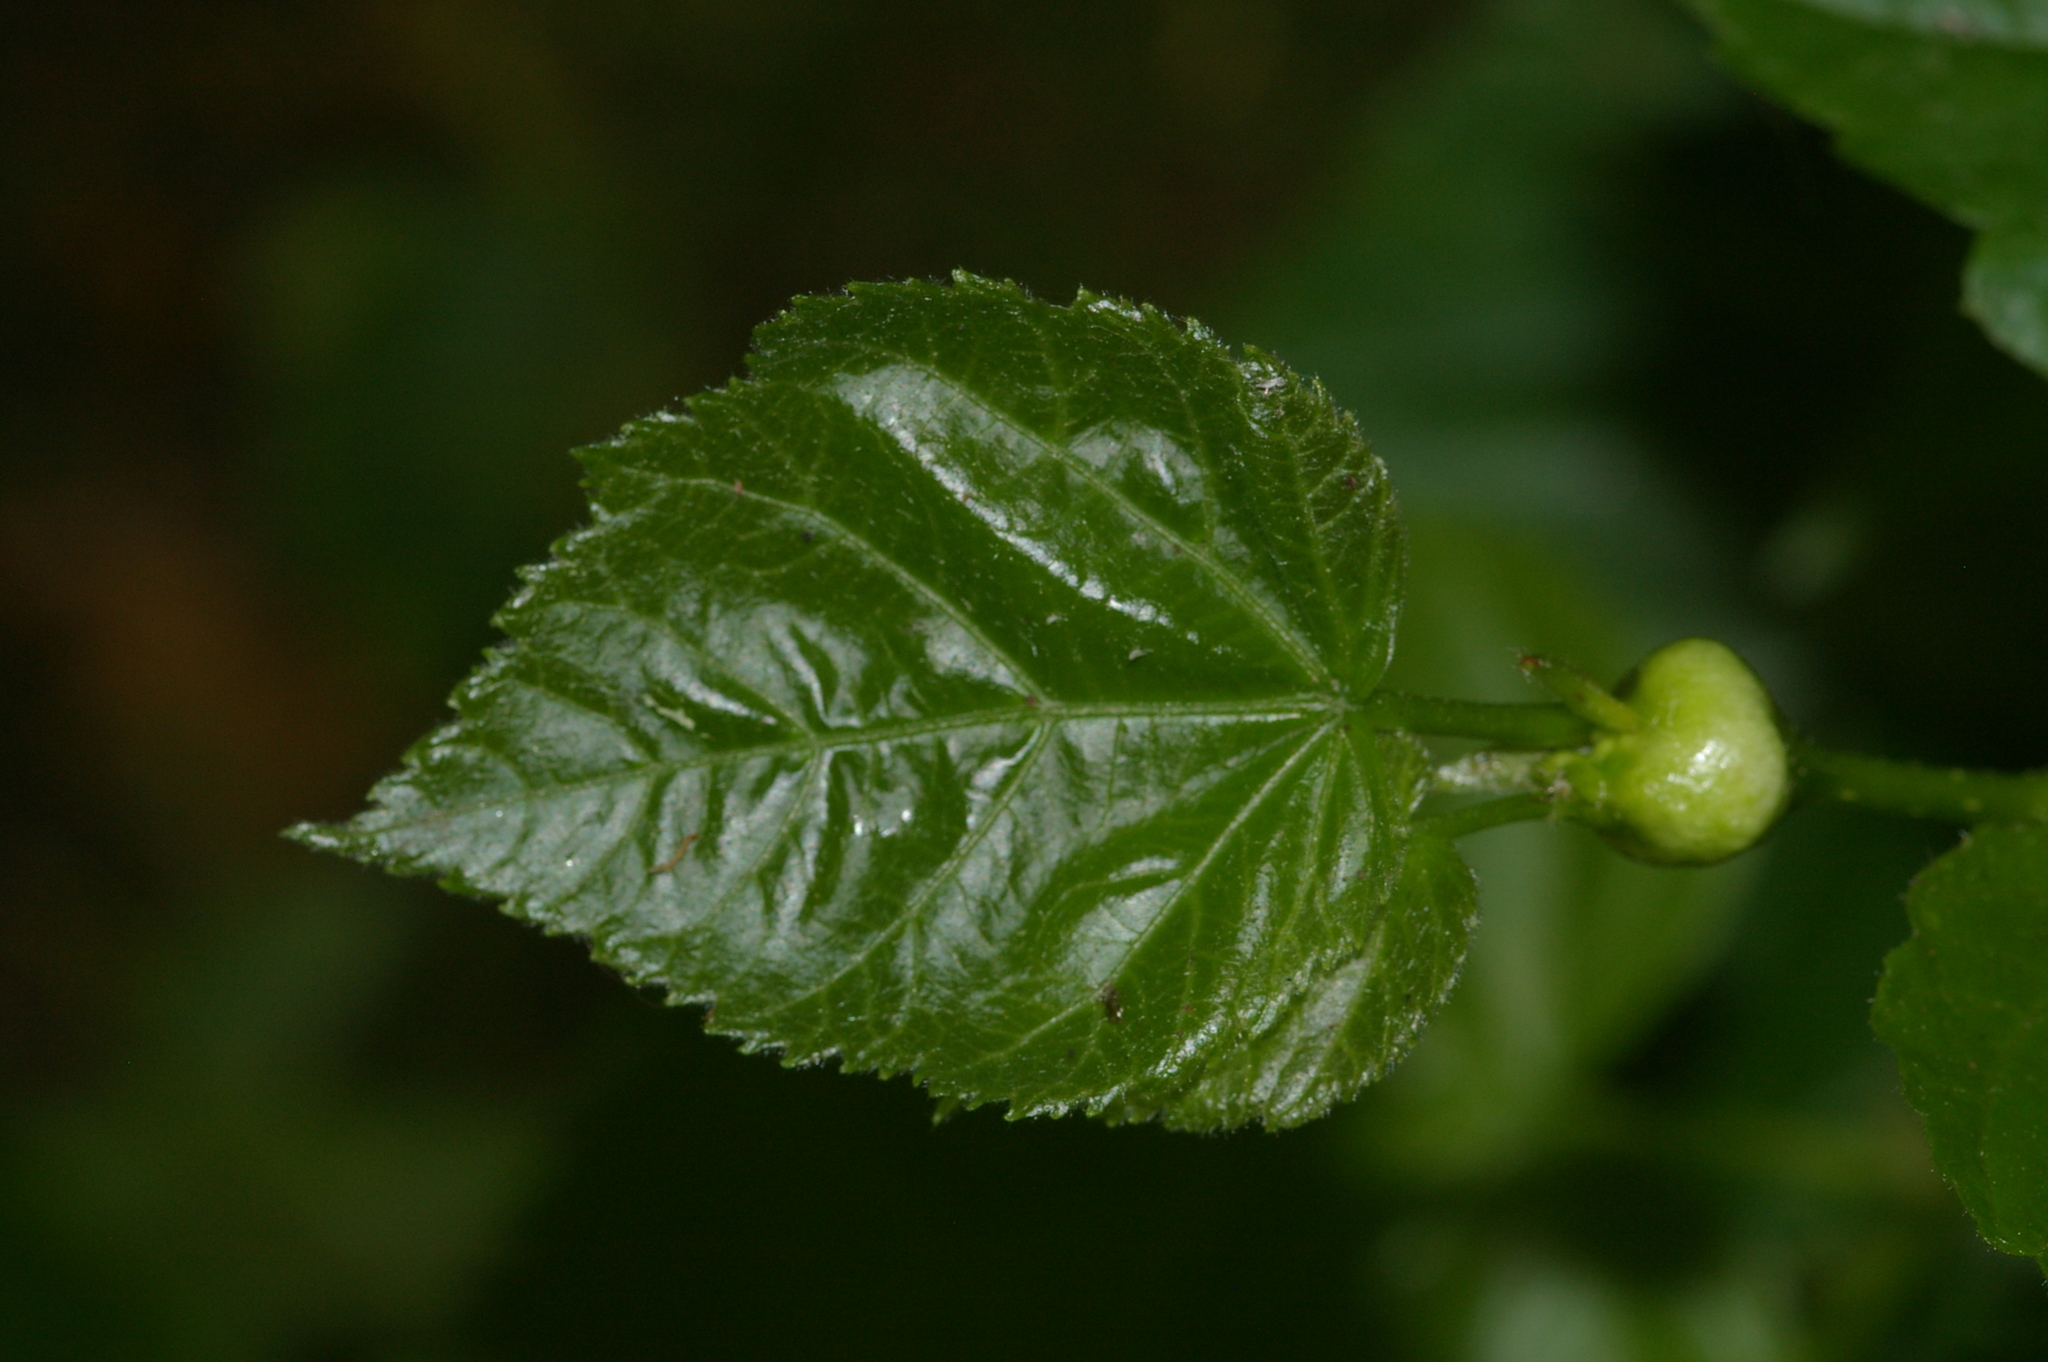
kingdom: Animalia
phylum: Arthropoda
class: Insecta
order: Diptera
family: Cecidomyiidae
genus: Contarinia
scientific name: Contarinia tiliarum
